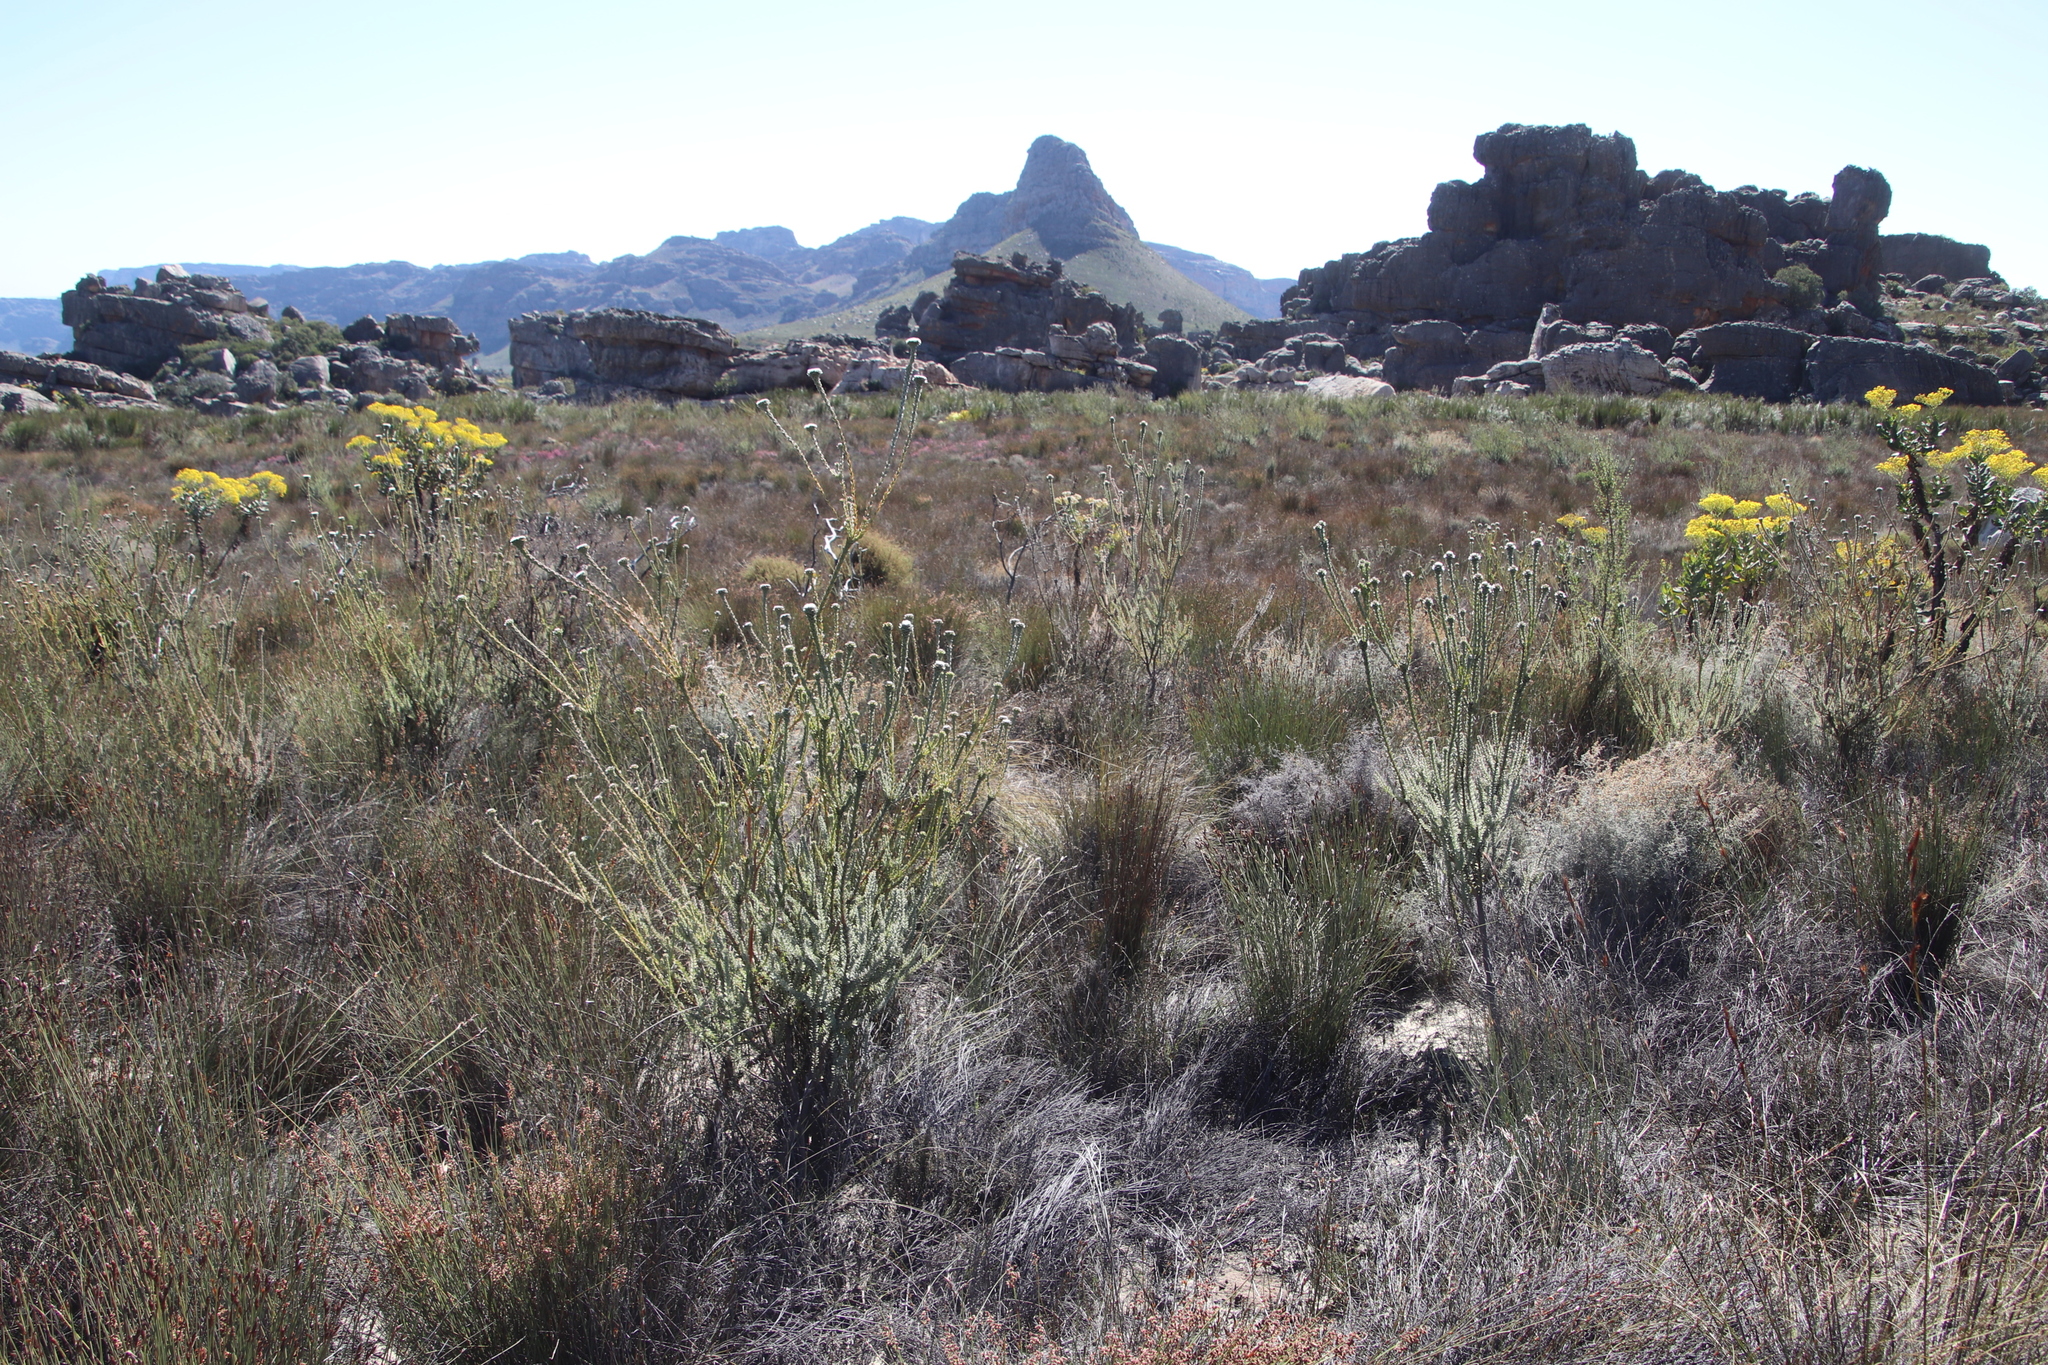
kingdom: Plantae
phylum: Tracheophyta
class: Magnoliopsida
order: Proteales
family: Proteaceae
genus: Leucadendron
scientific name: Leucadendron concavum
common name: Pakhuis conebush
